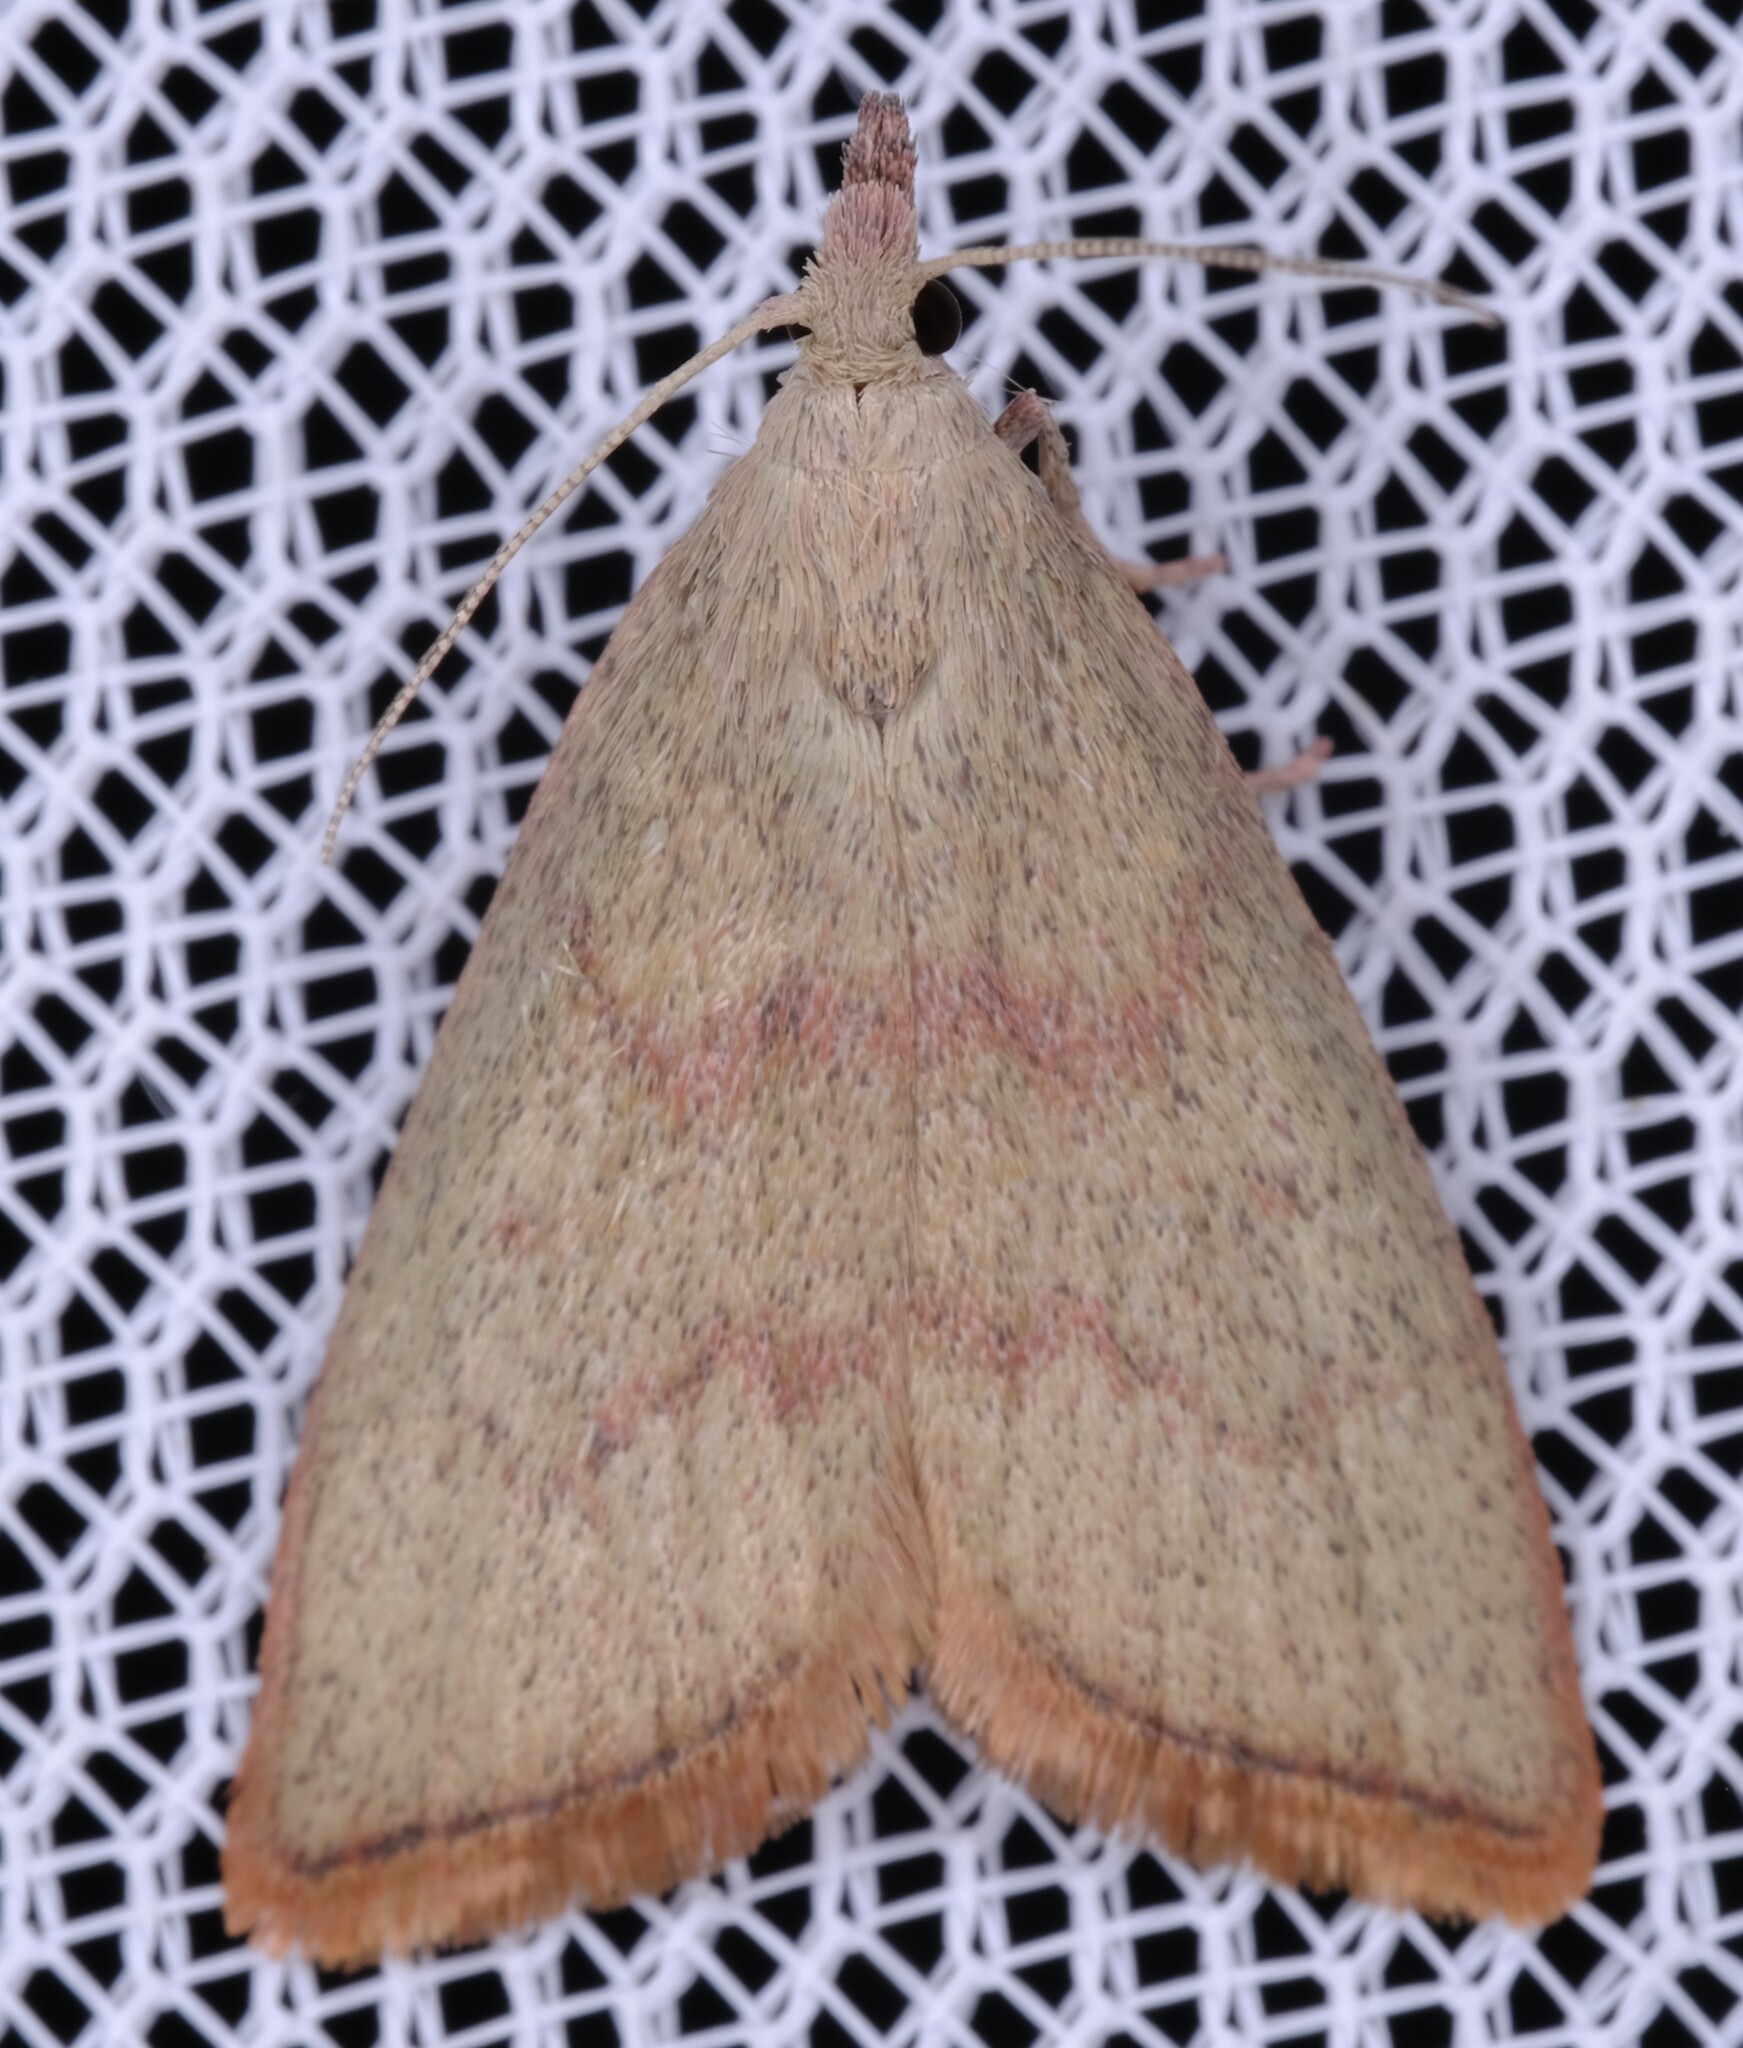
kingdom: Animalia
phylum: Arthropoda
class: Insecta
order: Lepidoptera
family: Pyralidae
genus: Callionyma
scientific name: Callionyma sarcodes
